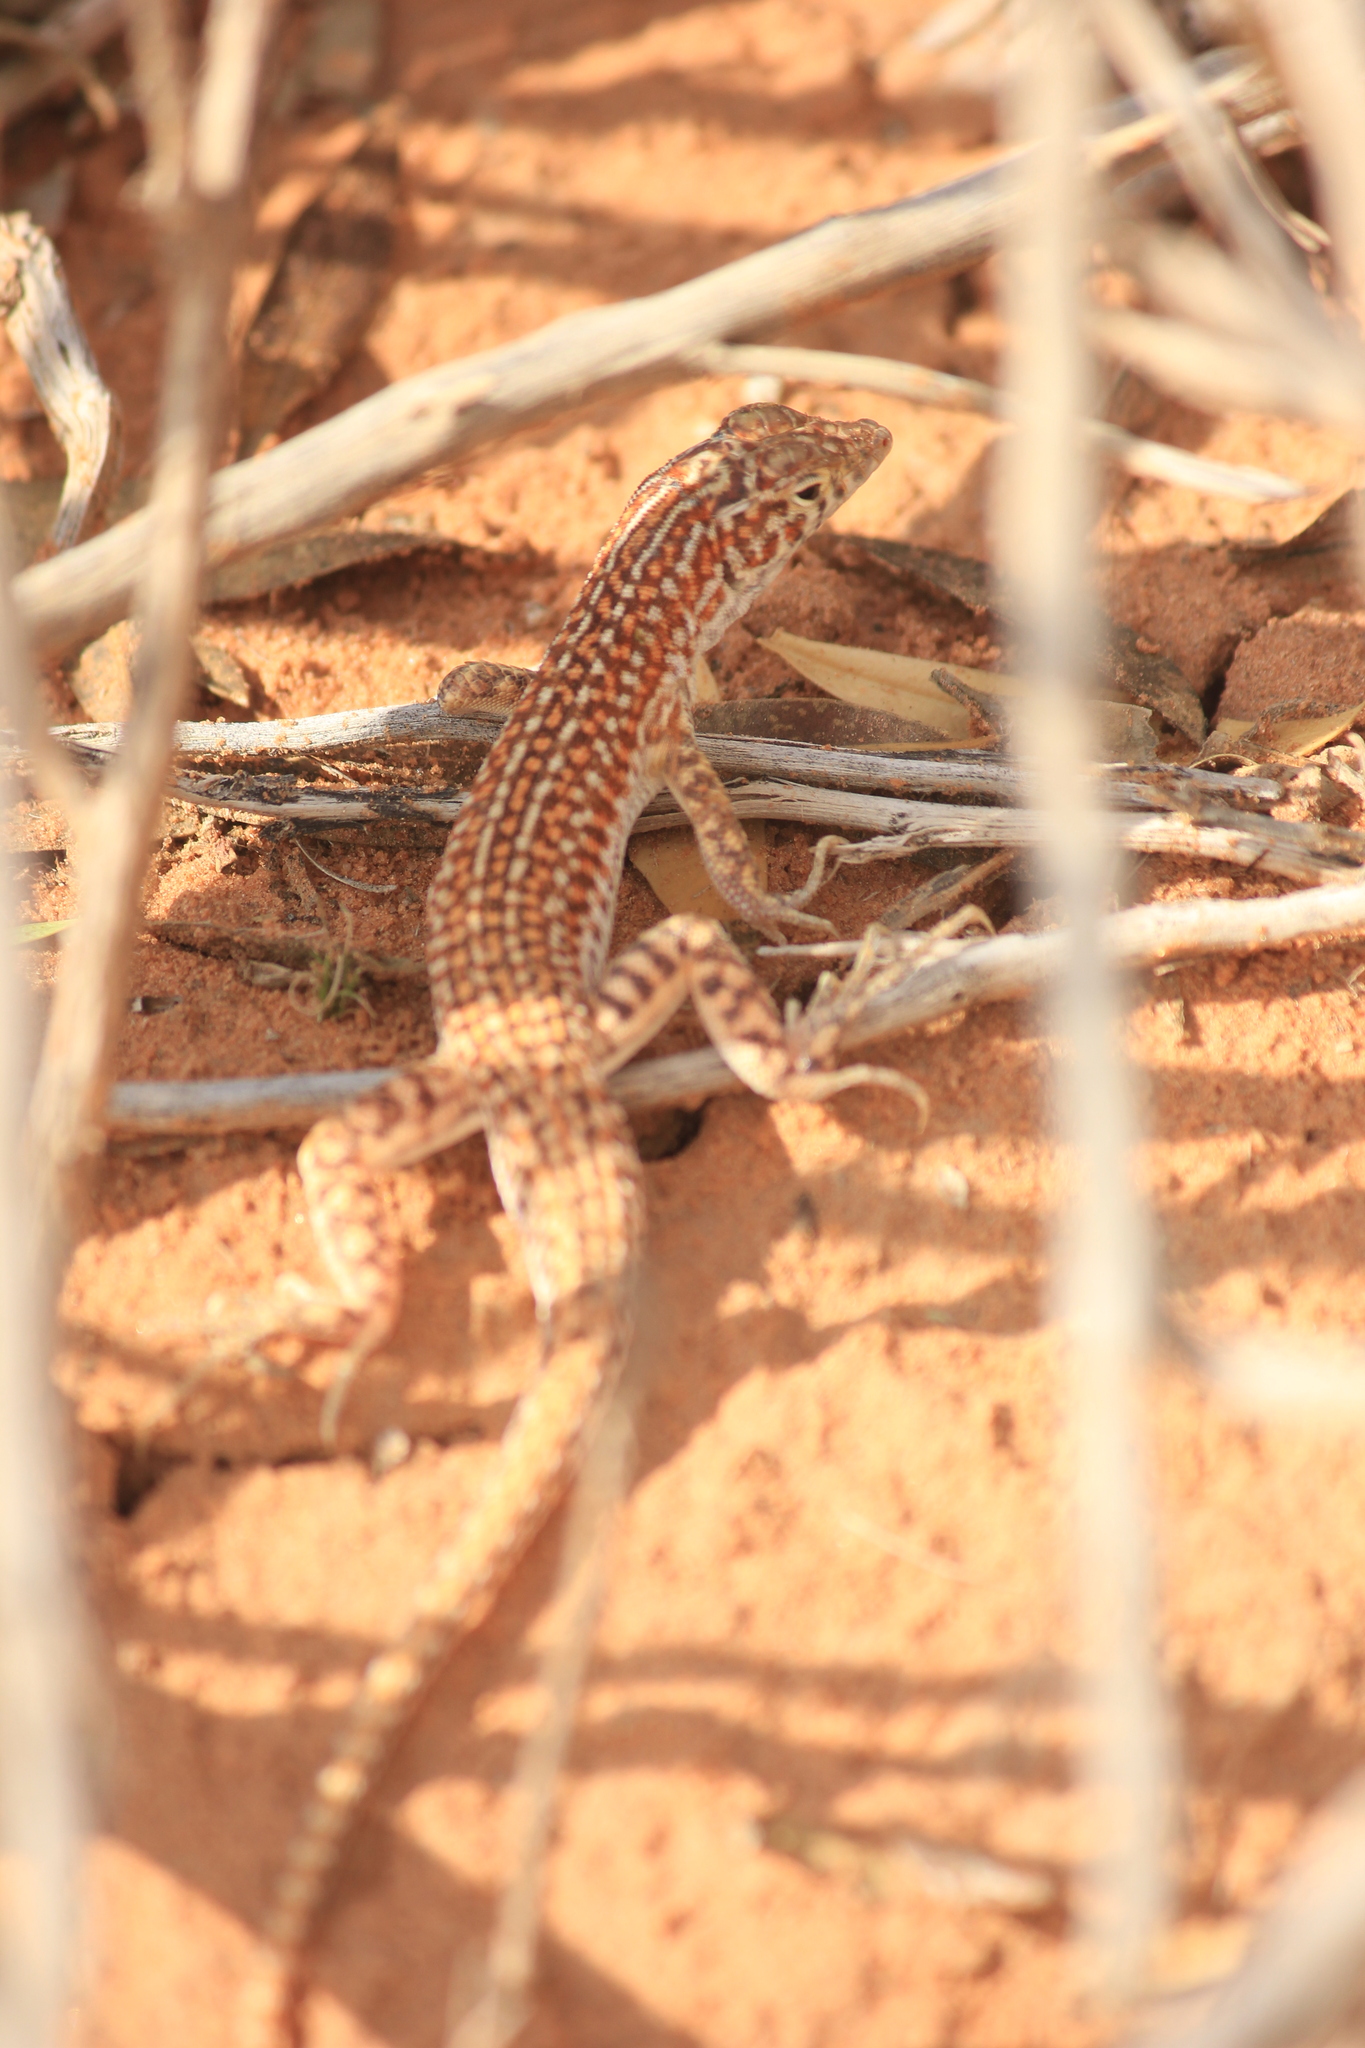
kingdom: Animalia
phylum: Chordata
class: Squamata
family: Lacertidae
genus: Acanthodactylus
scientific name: Acanthodactylus opheodurus
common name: Arnold's fringe-fingered lizard
